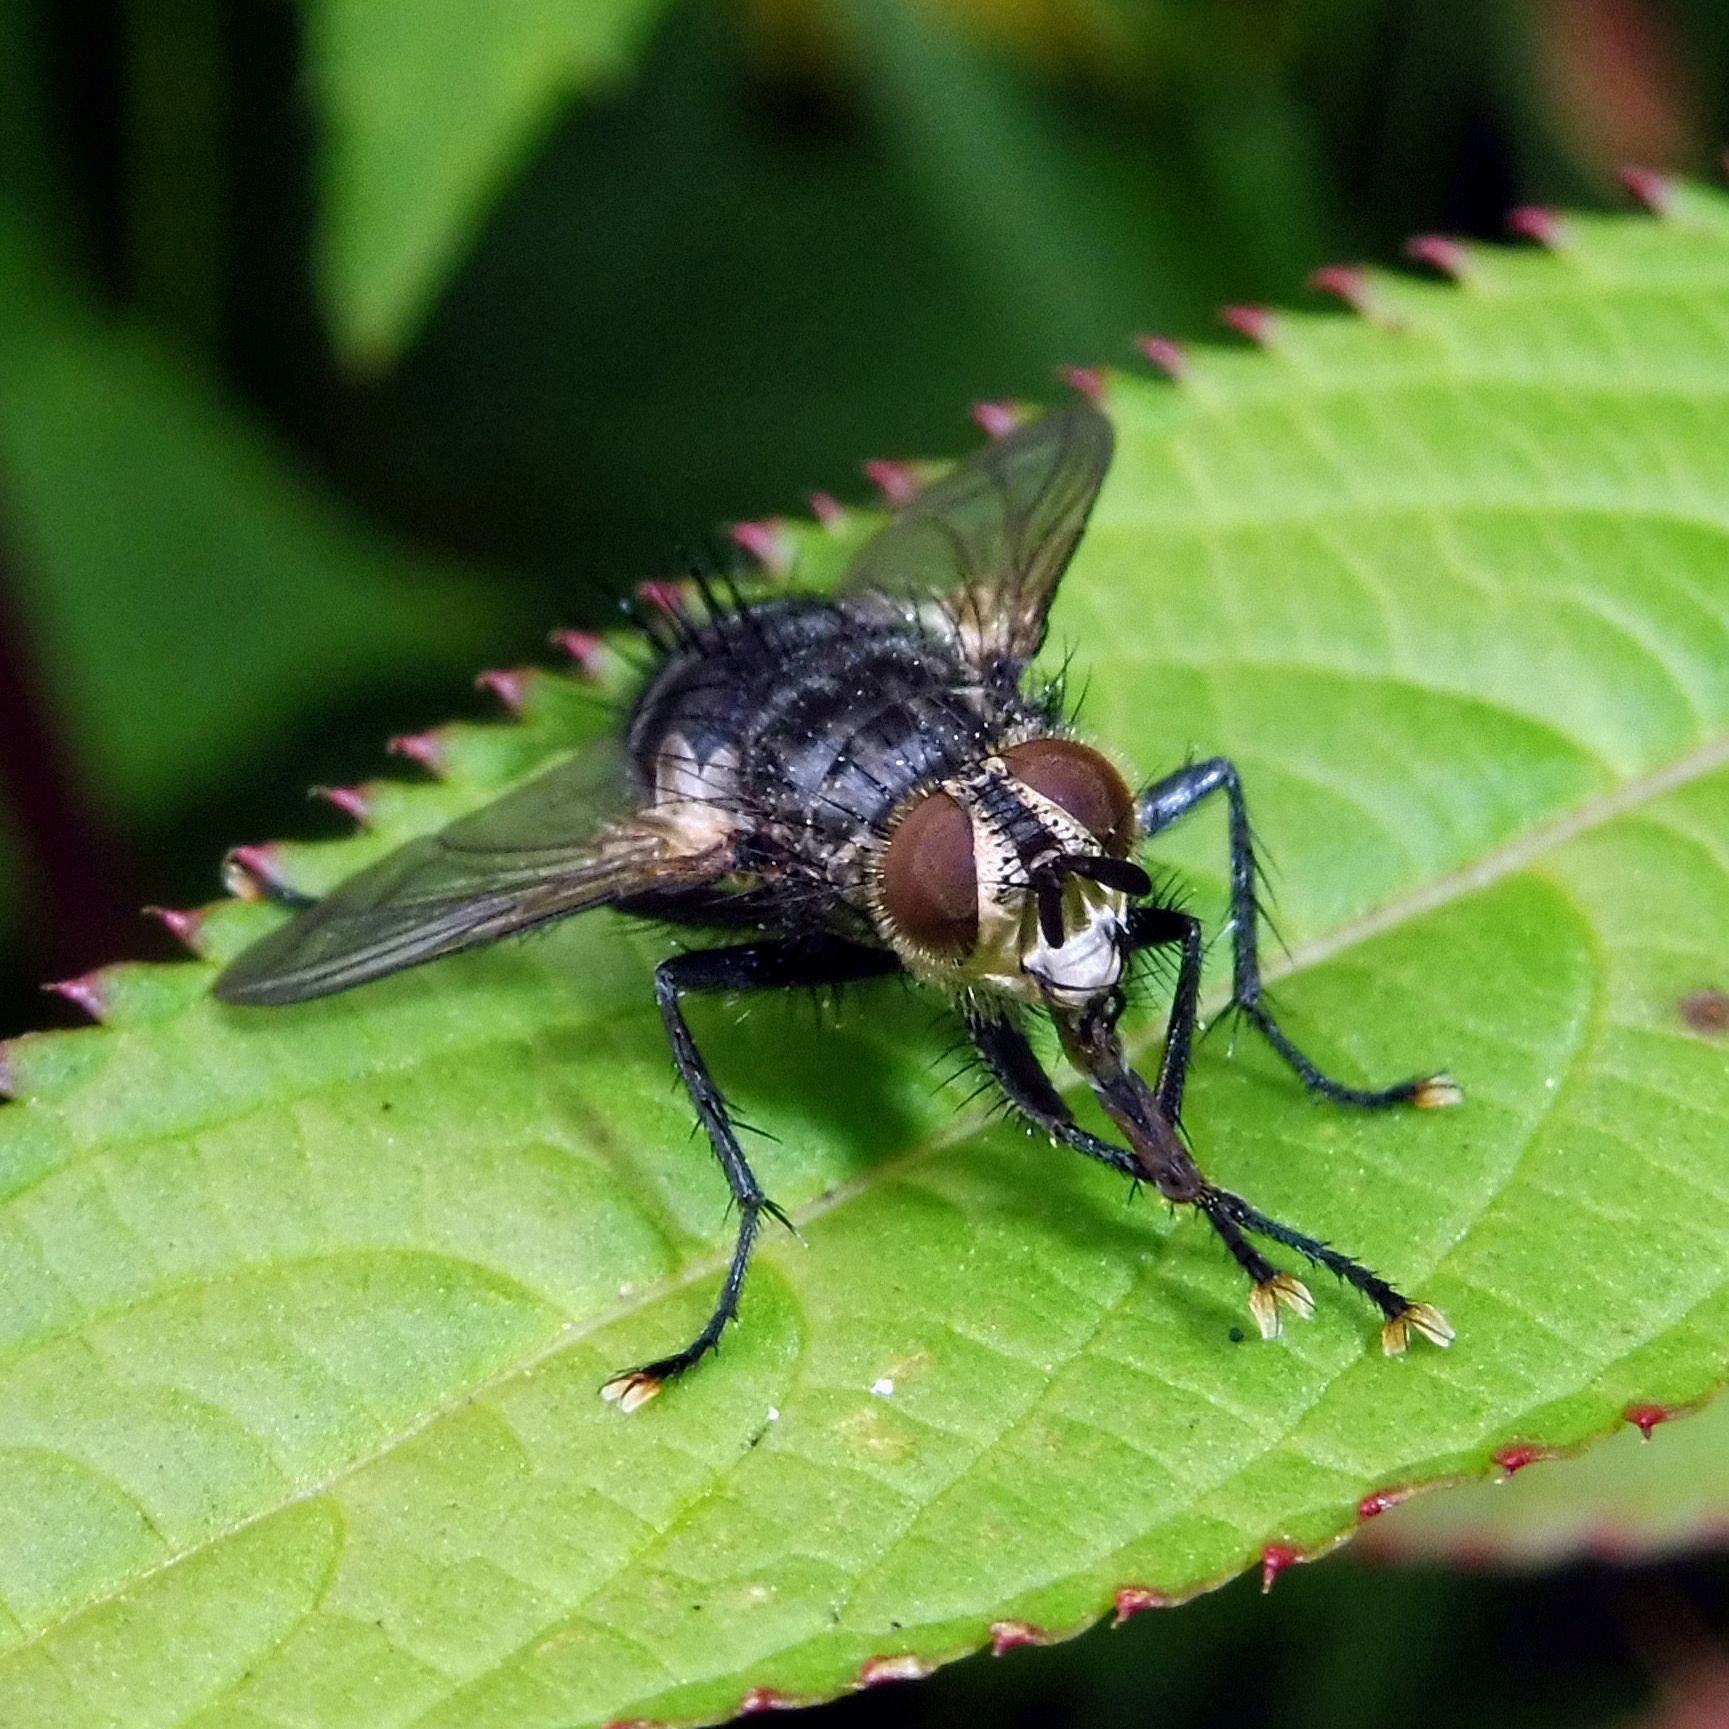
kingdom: Animalia
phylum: Arthropoda
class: Insecta
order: Diptera
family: Tachinidae
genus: Eurithia
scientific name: Eurithia anthophila
